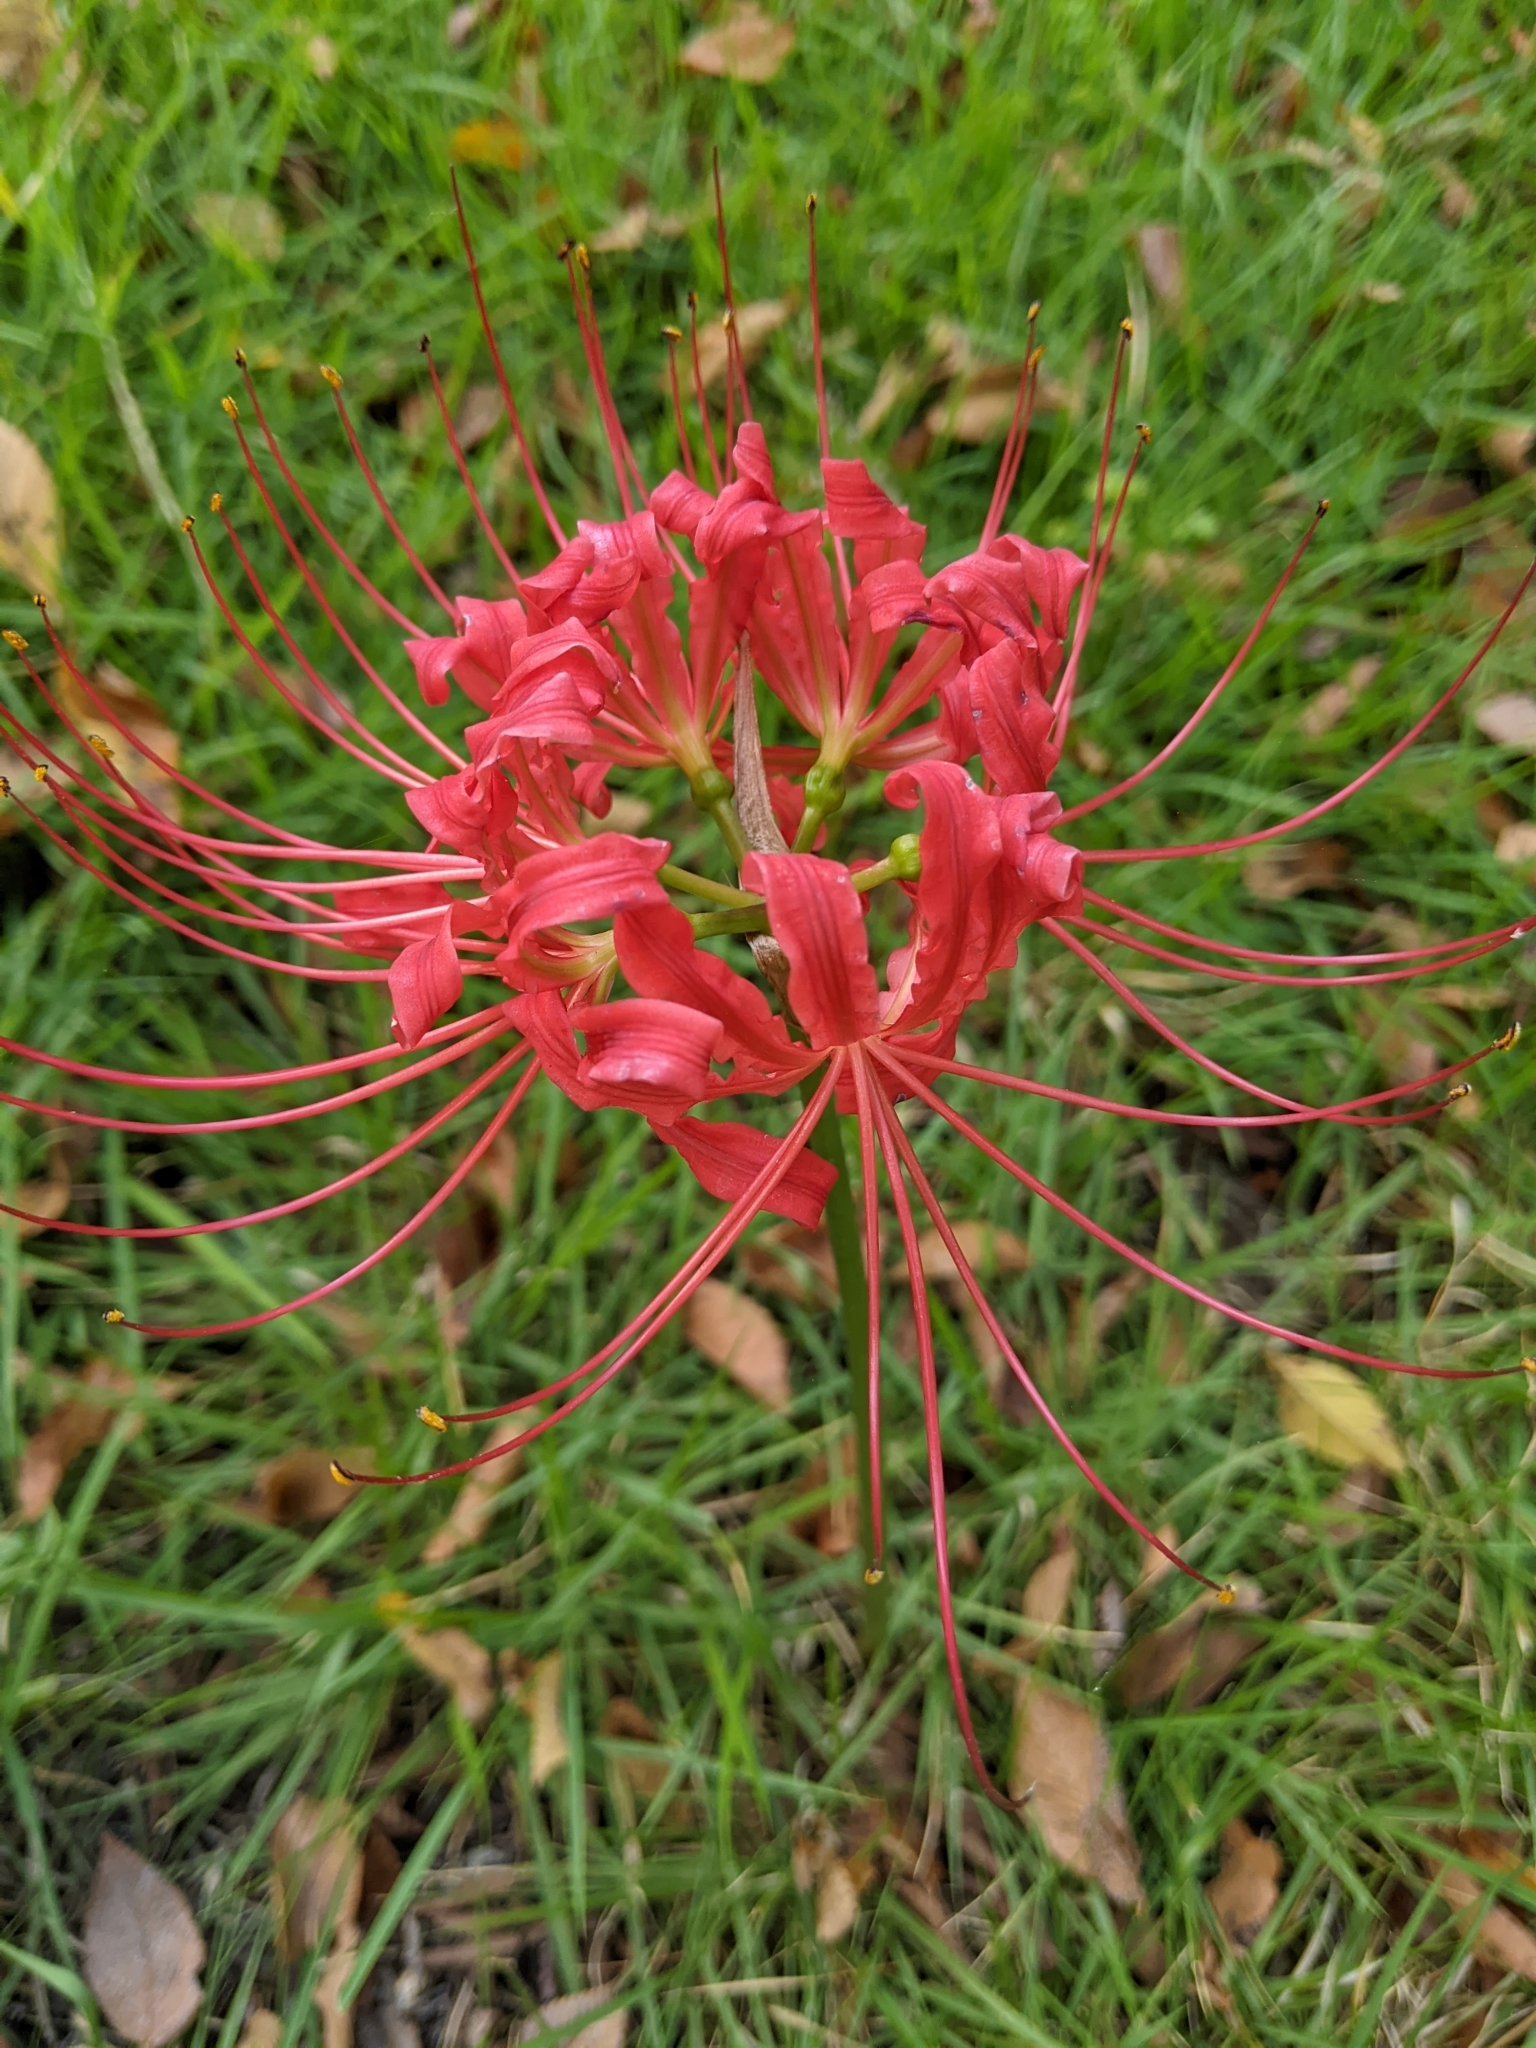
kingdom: Plantae
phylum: Tracheophyta
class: Liliopsida
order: Asparagales
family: Amaryllidaceae
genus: Lycoris
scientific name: Lycoris radiata
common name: Red spider lily
